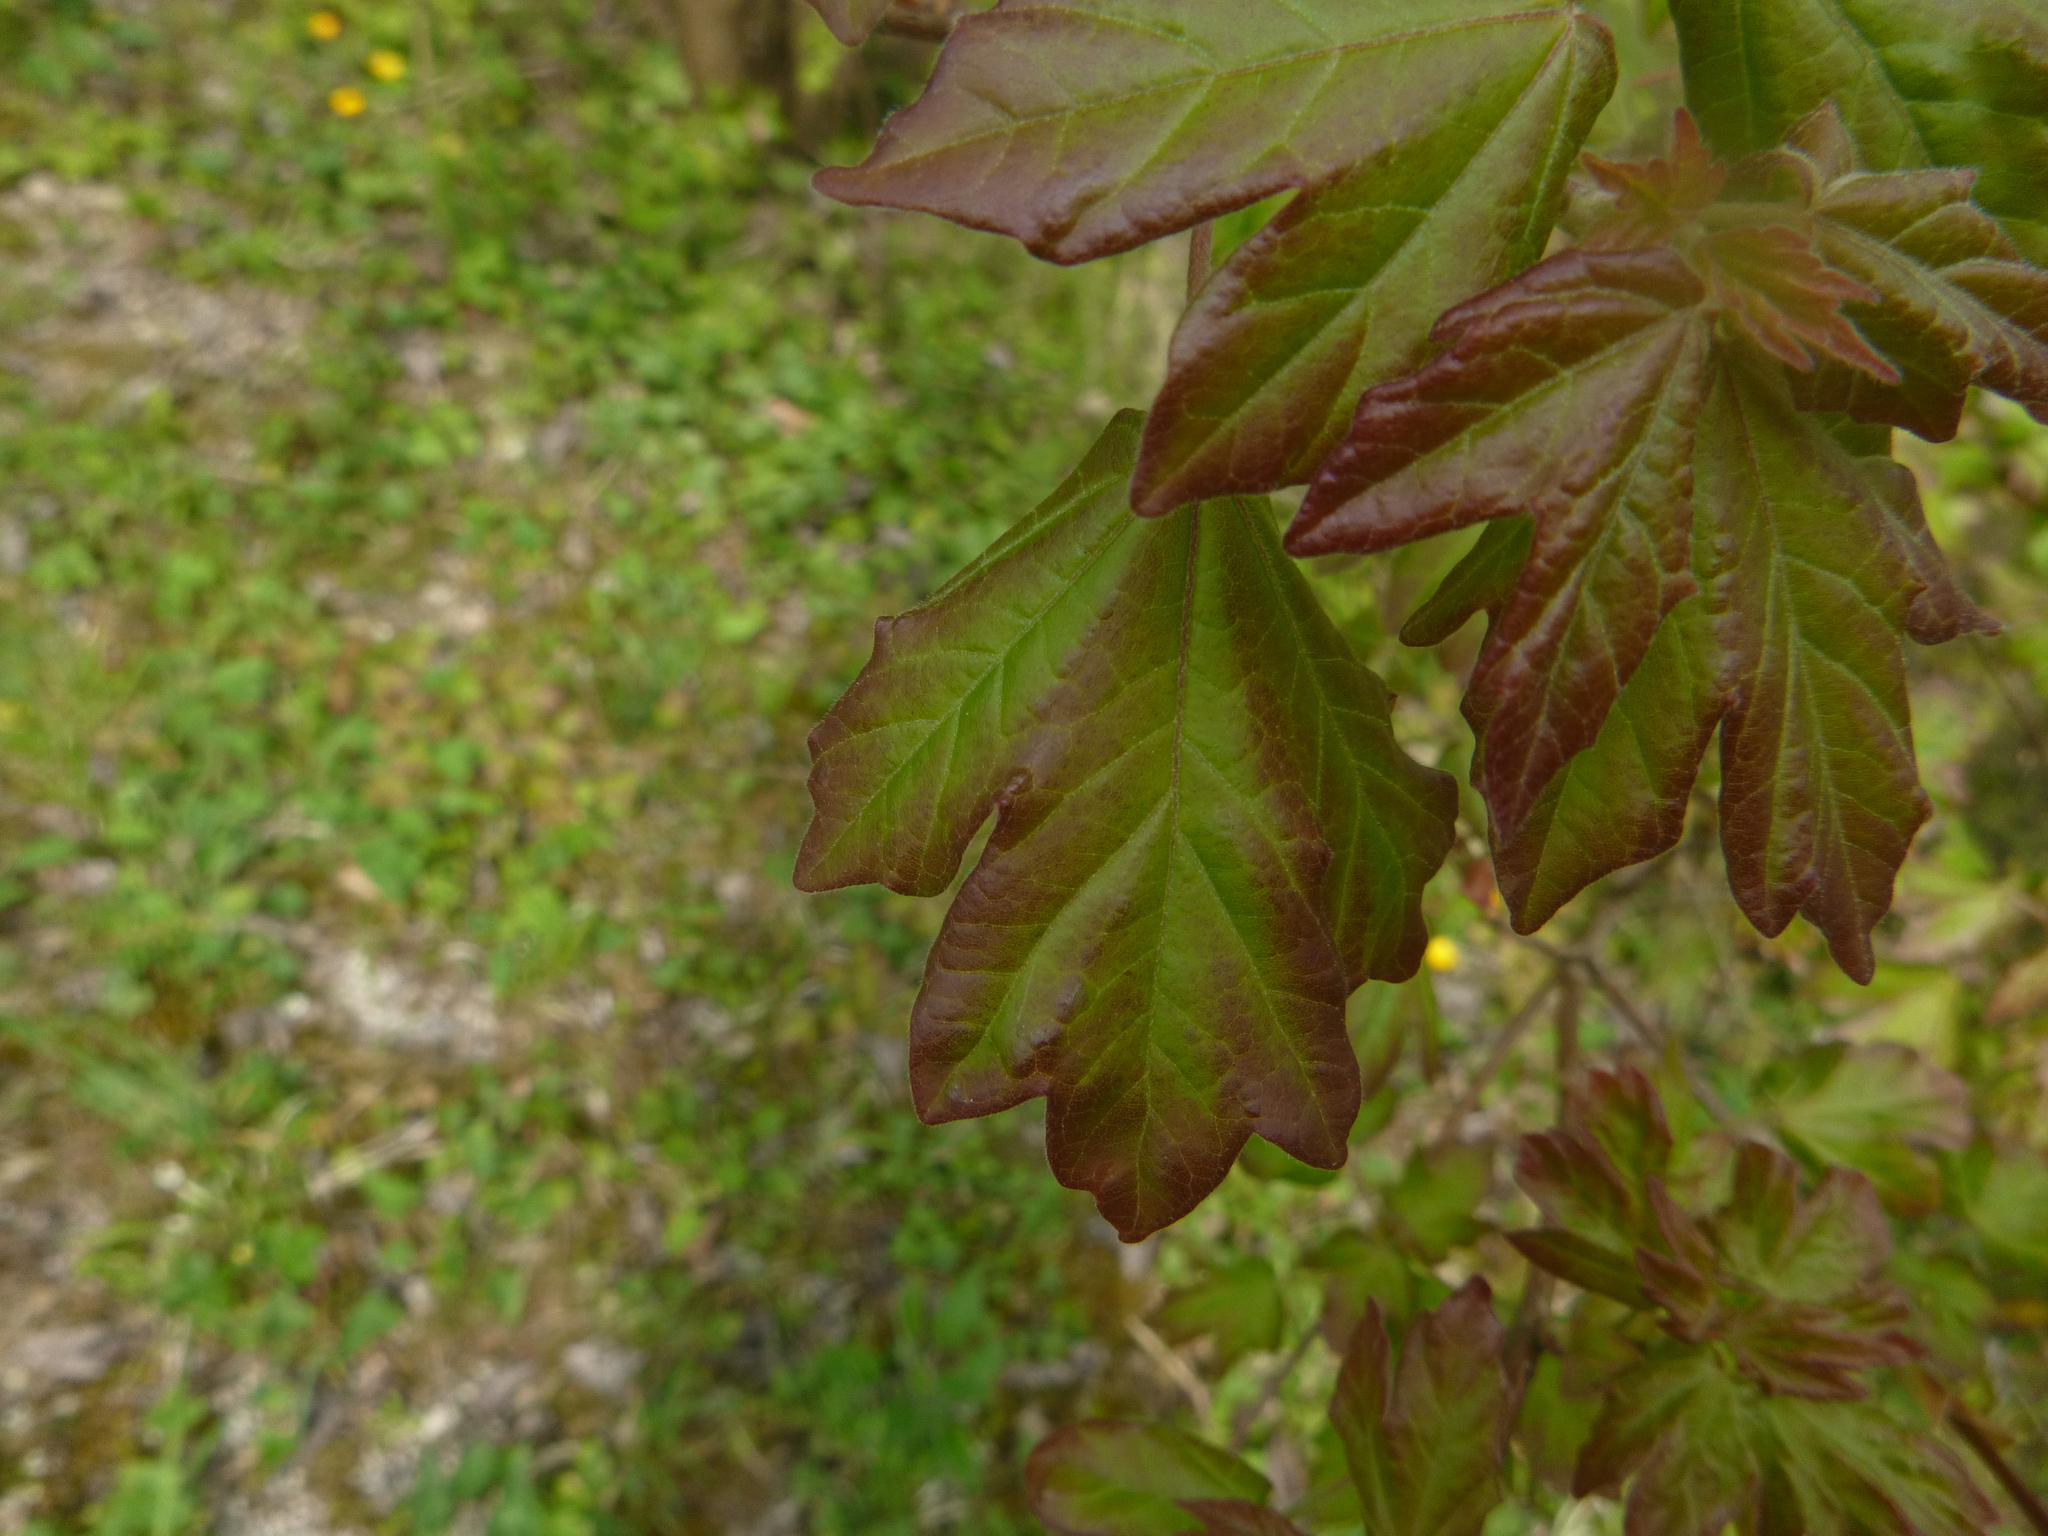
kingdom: Plantae
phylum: Tracheophyta
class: Magnoliopsida
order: Sapindales
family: Sapindaceae
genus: Acer
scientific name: Acer campestre
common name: Field maple
